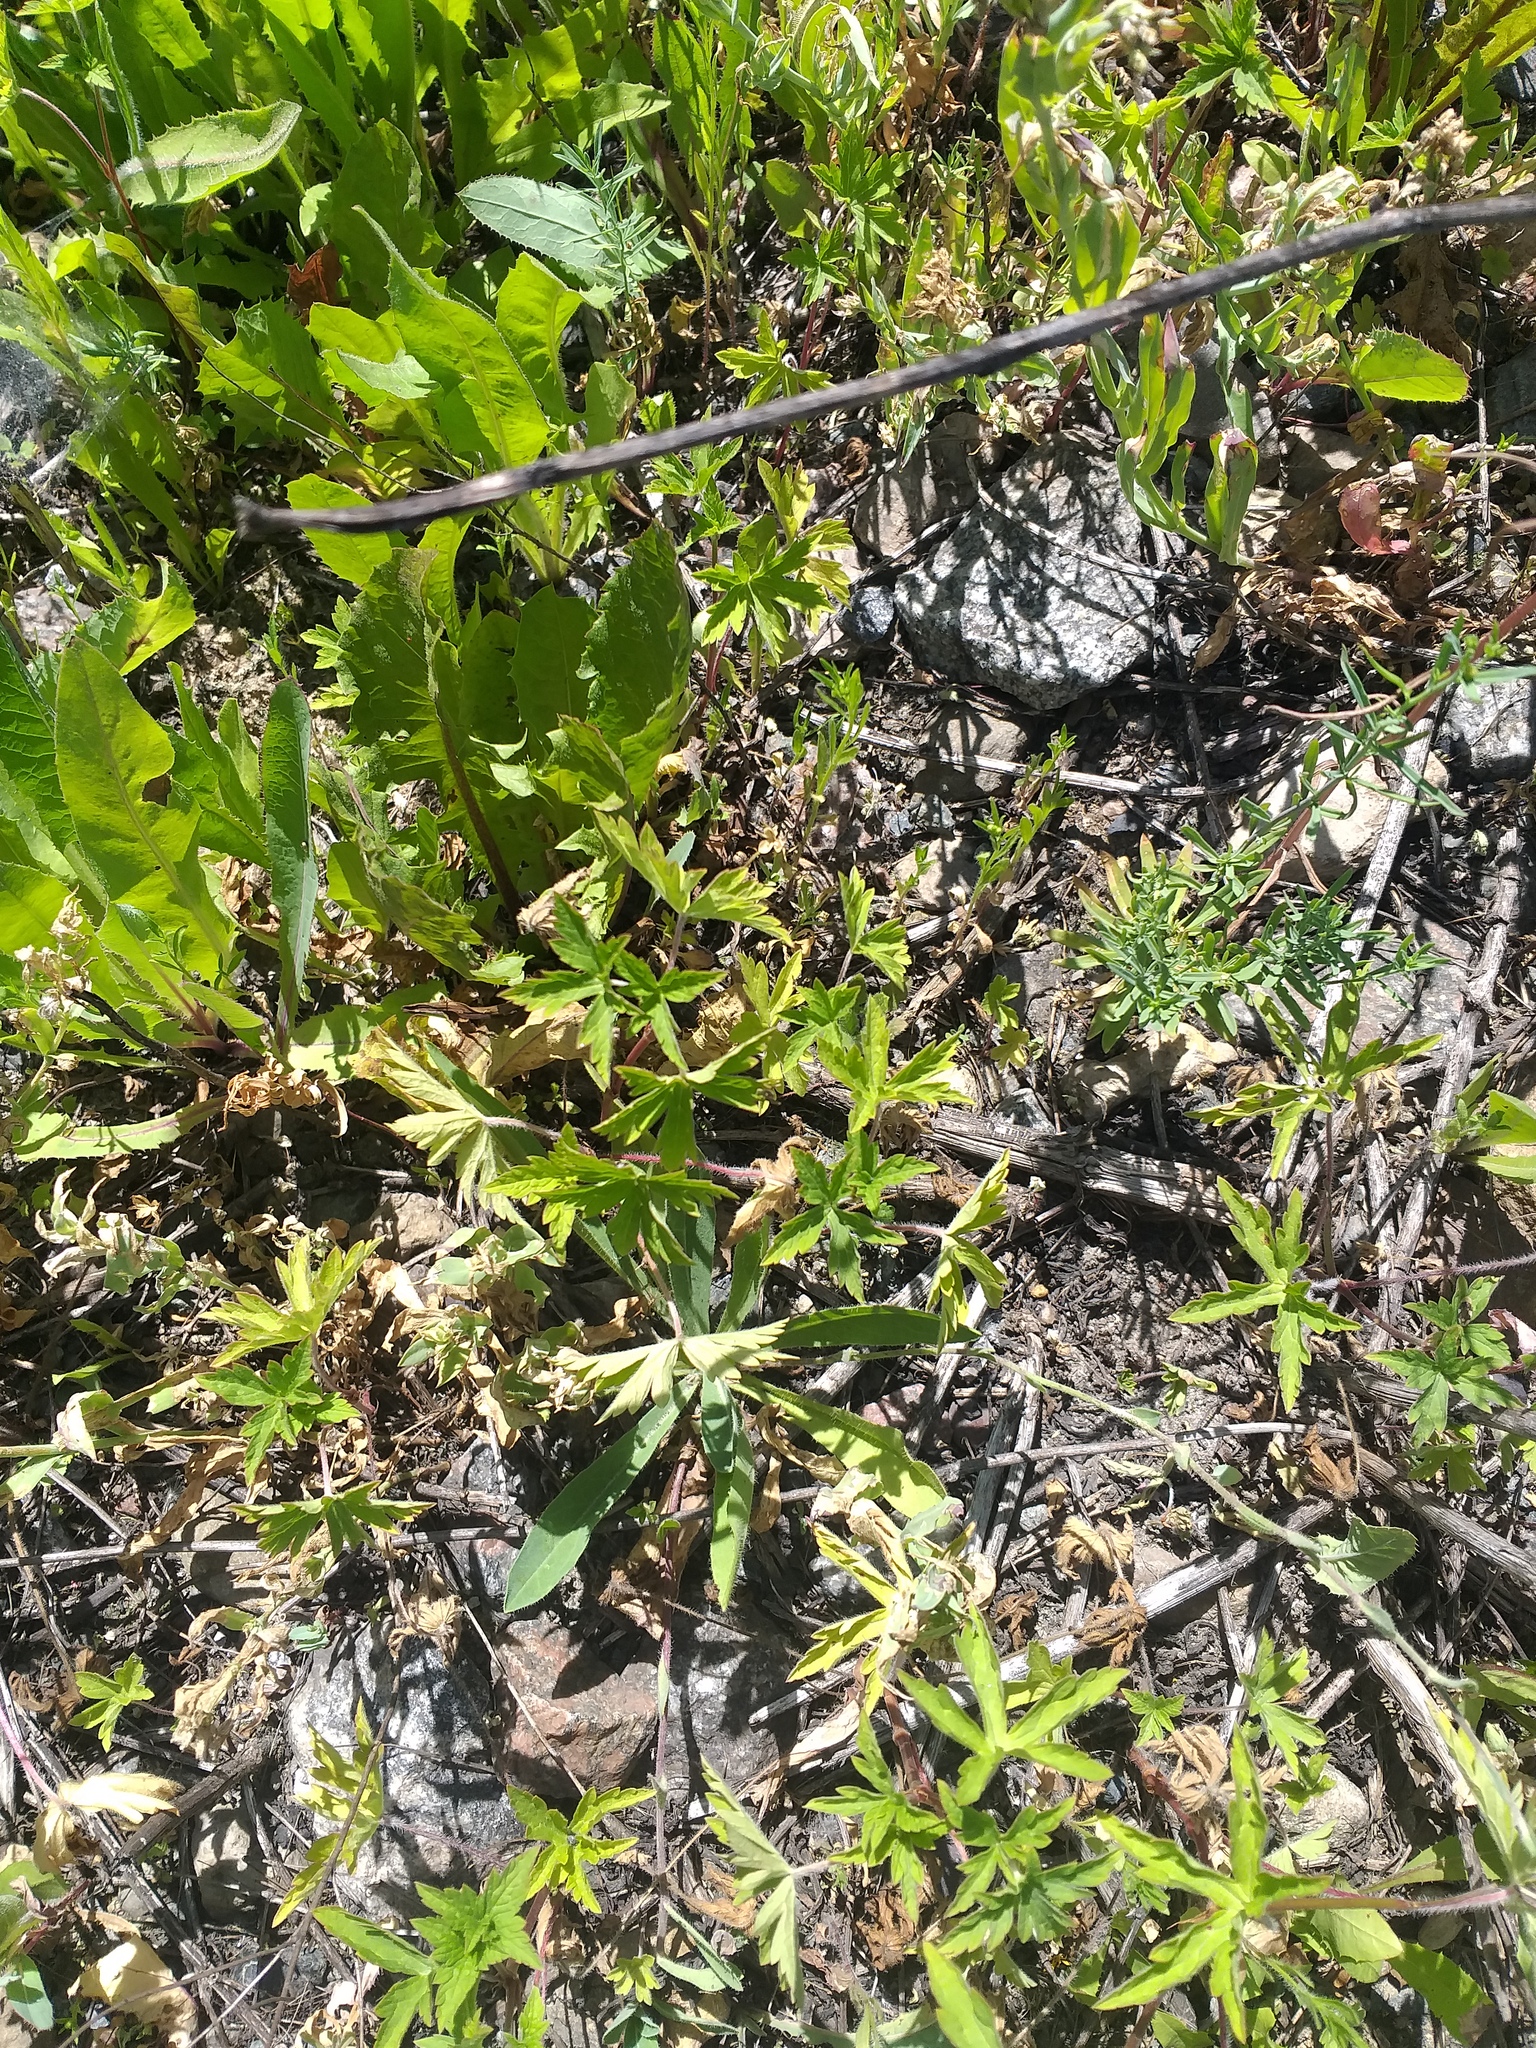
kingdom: Plantae
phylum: Tracheophyta
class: Magnoliopsida
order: Geraniales
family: Geraniaceae
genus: Geranium
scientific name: Geranium sibiricum
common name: Siberian crane's-bill
